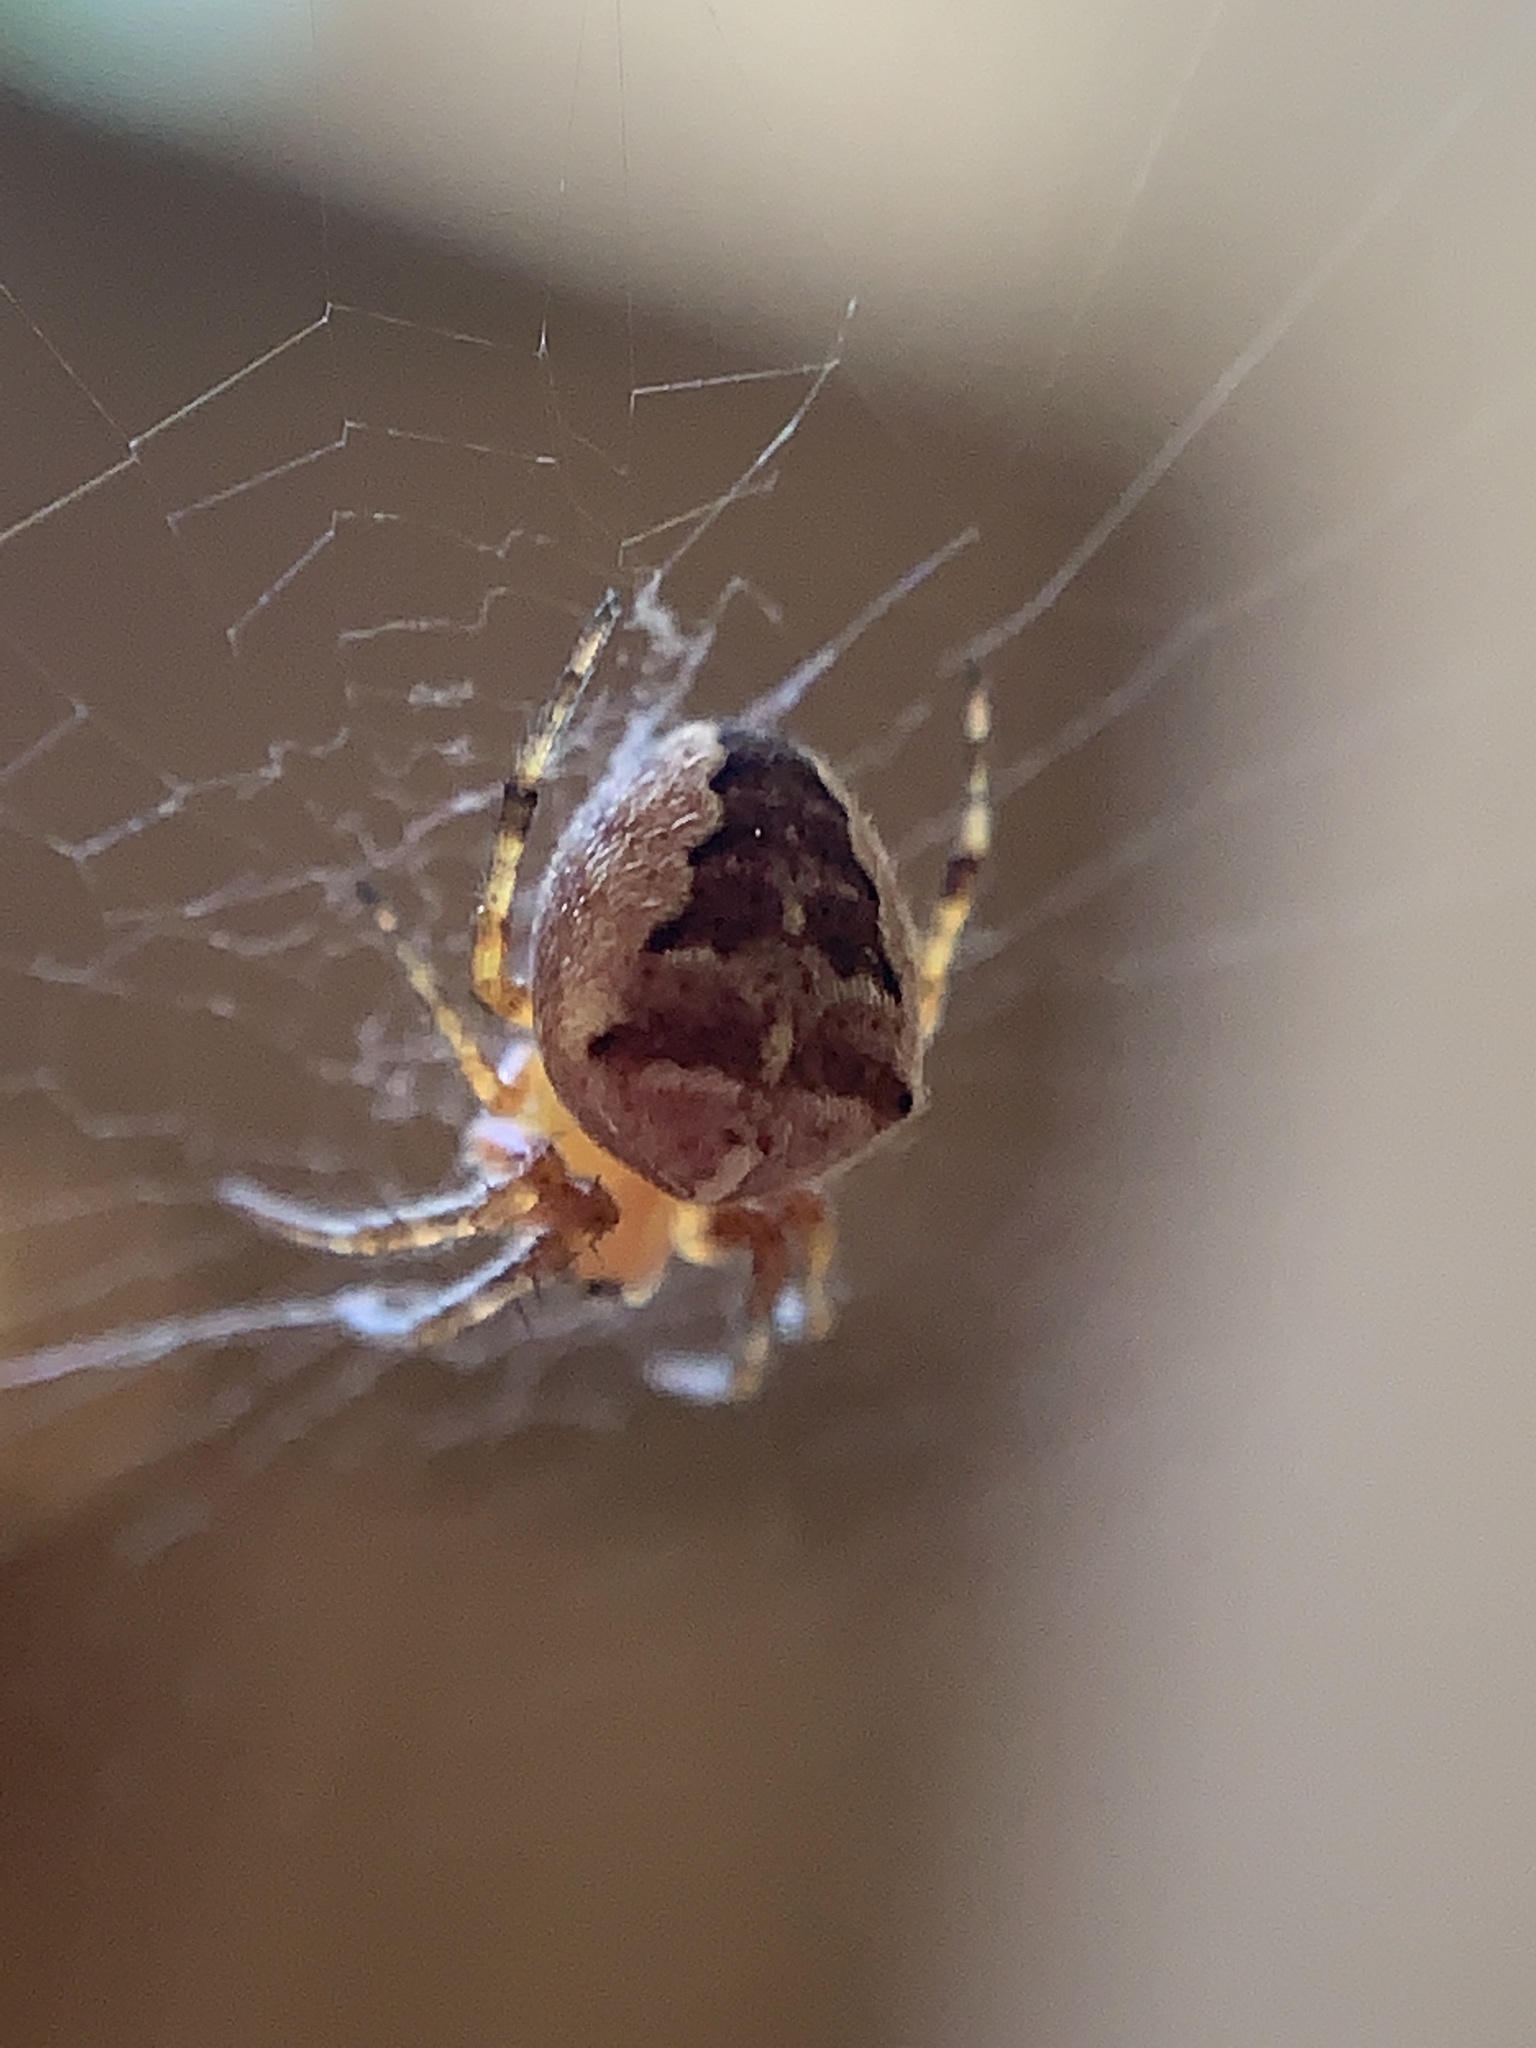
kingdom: Animalia
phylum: Arthropoda
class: Arachnida
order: Araneae
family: Araneidae
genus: Araneus
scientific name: Araneus diadematus
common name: Cross orbweaver
